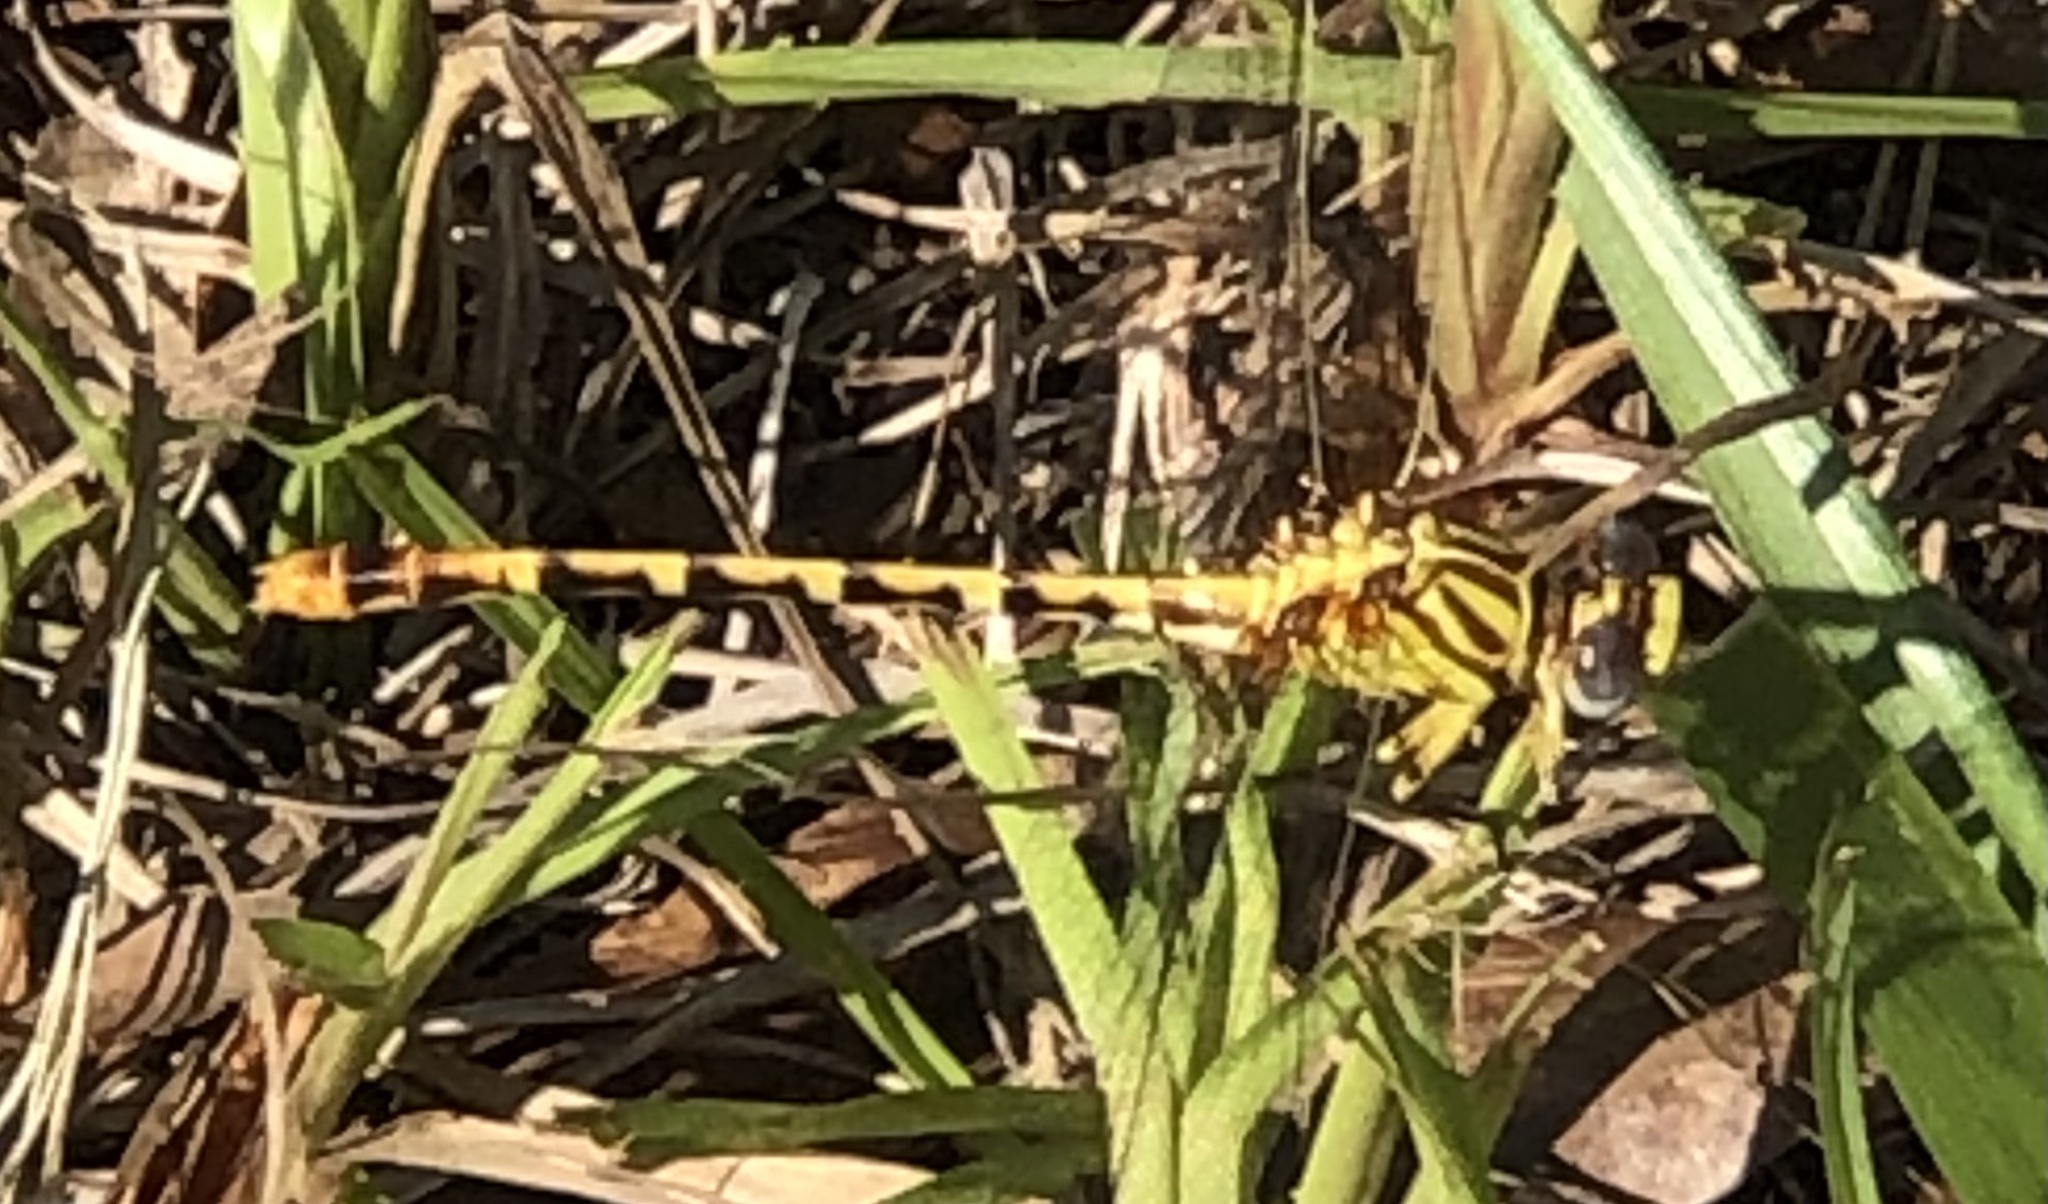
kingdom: Animalia
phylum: Arthropoda
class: Insecta
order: Odonata
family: Gomphidae
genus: Erpetogomphus
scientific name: Erpetogomphus designatus
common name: Eastern ringtail
